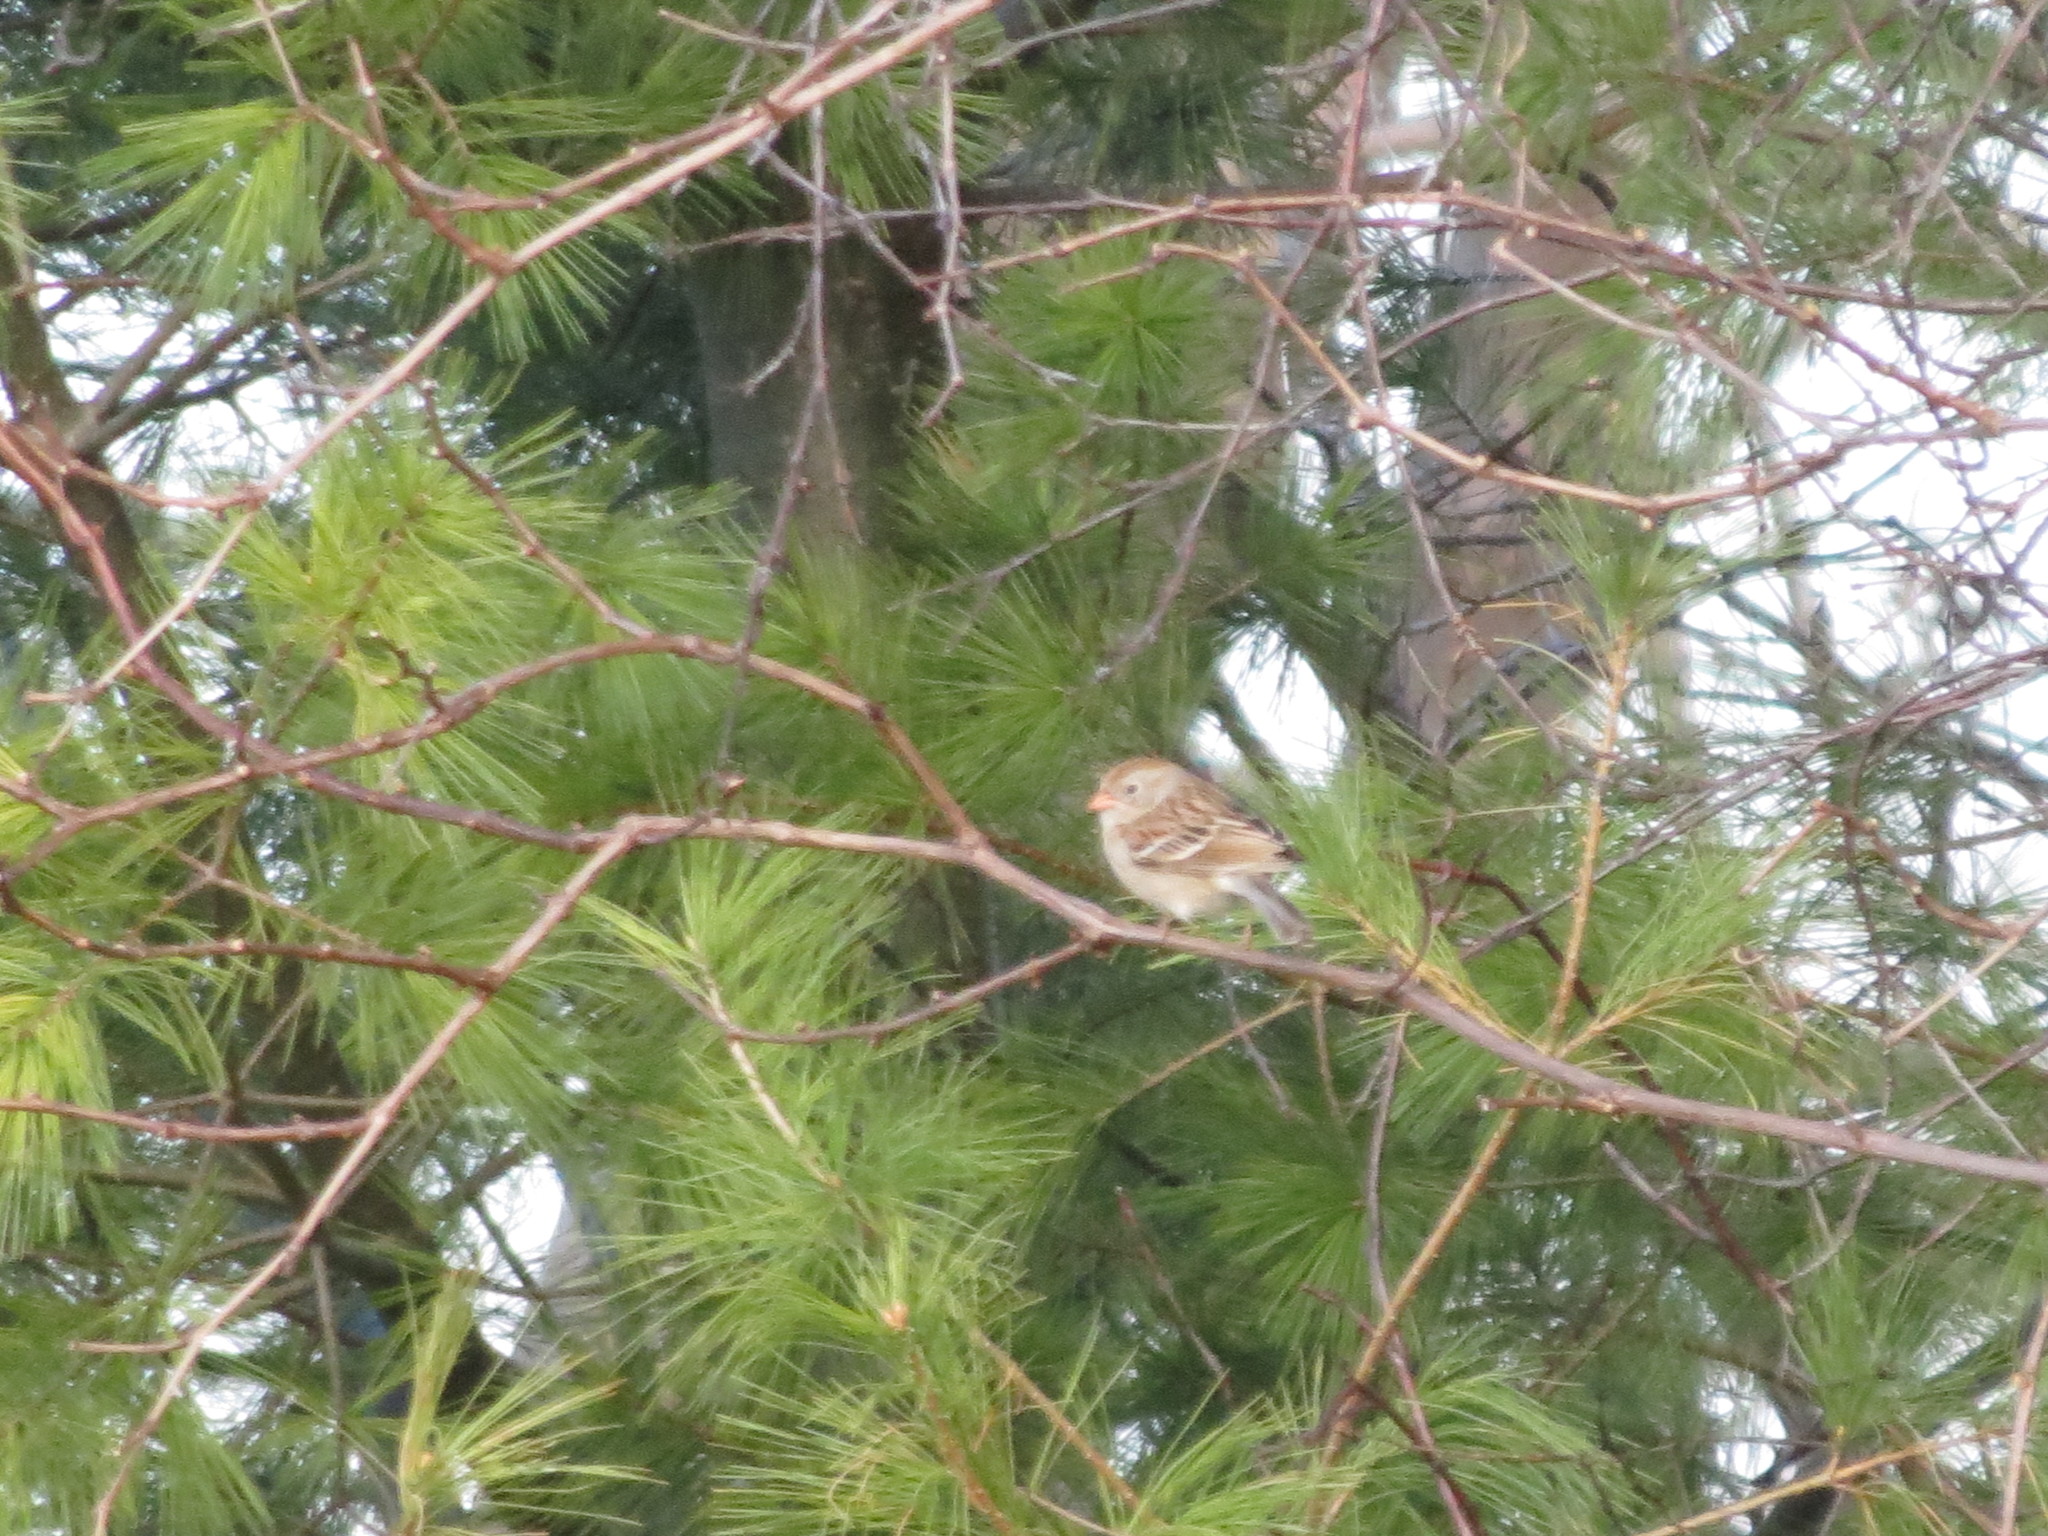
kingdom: Animalia
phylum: Chordata
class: Aves
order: Passeriformes
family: Passerellidae
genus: Spizella
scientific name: Spizella pusilla
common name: Field sparrow
